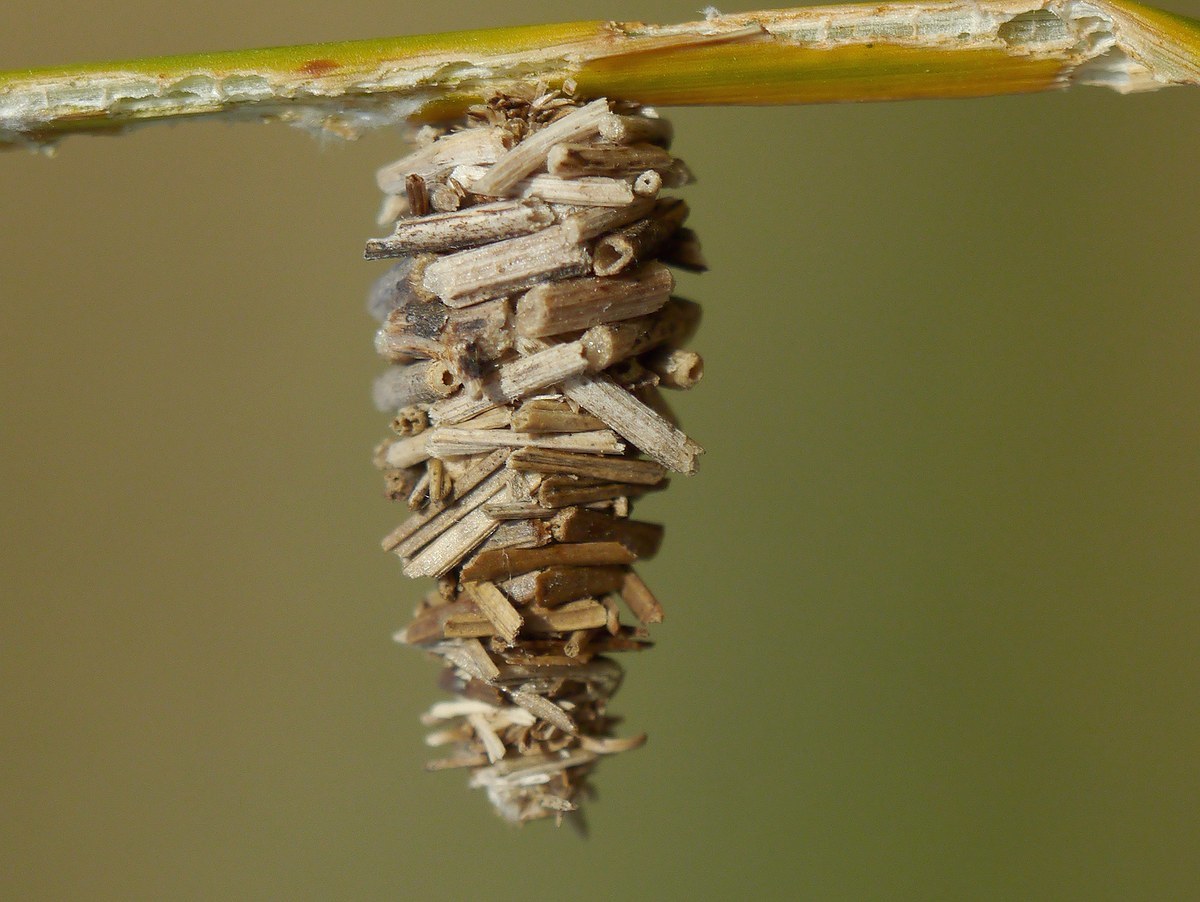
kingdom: Animalia
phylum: Arthropoda
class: Insecta
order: Lepidoptera
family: Psychidae
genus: Megalophanes
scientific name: Megalophanes
